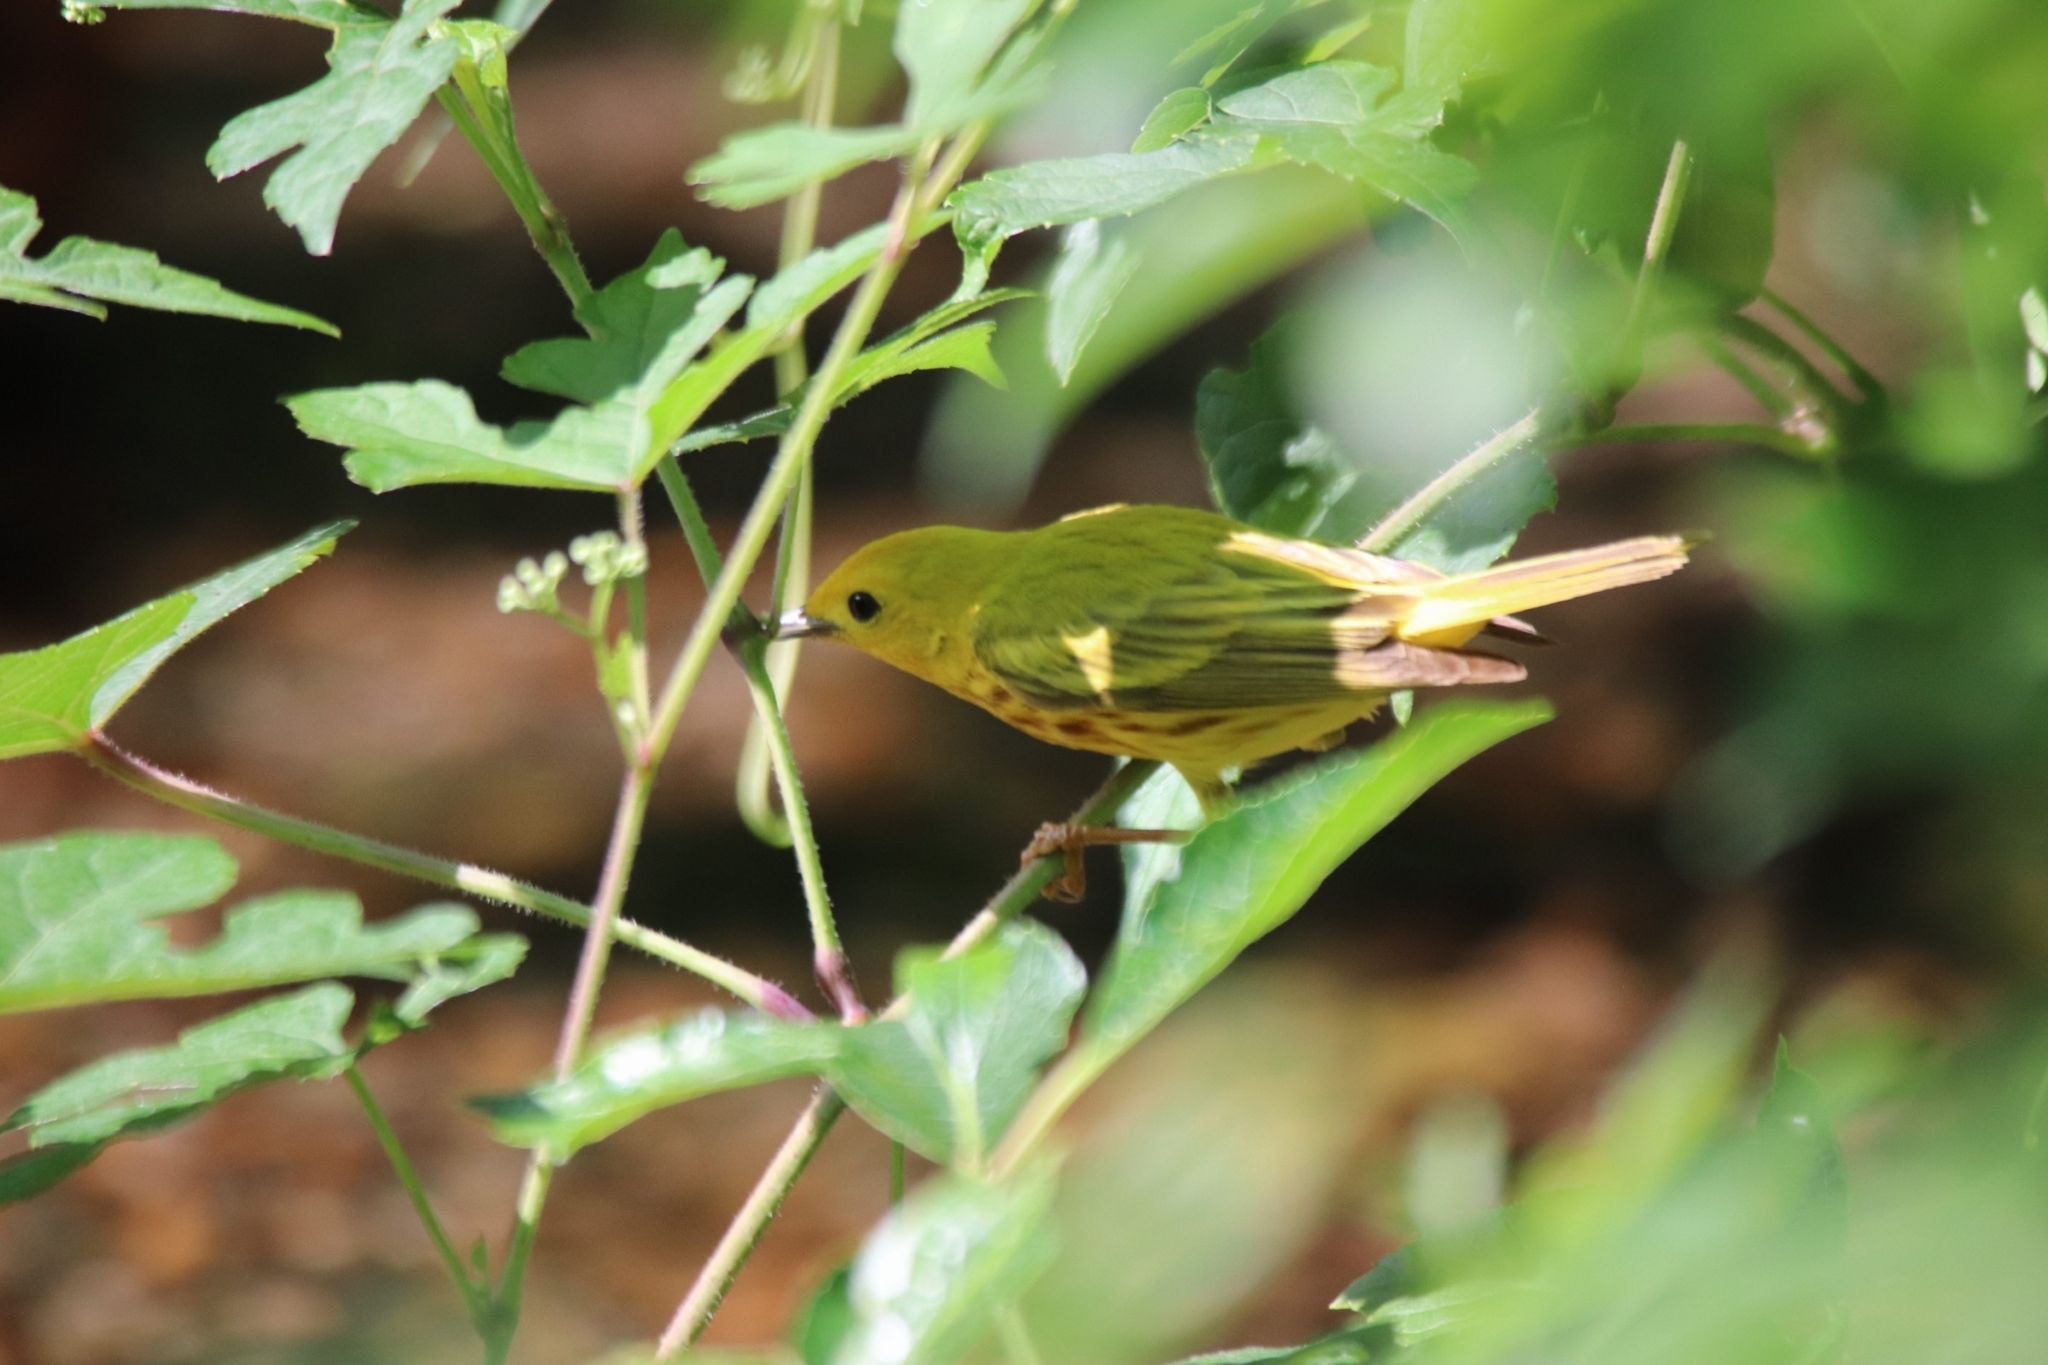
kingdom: Animalia
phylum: Chordata
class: Aves
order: Passeriformes
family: Parulidae
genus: Setophaga
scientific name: Setophaga petechia
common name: Yellow warbler
